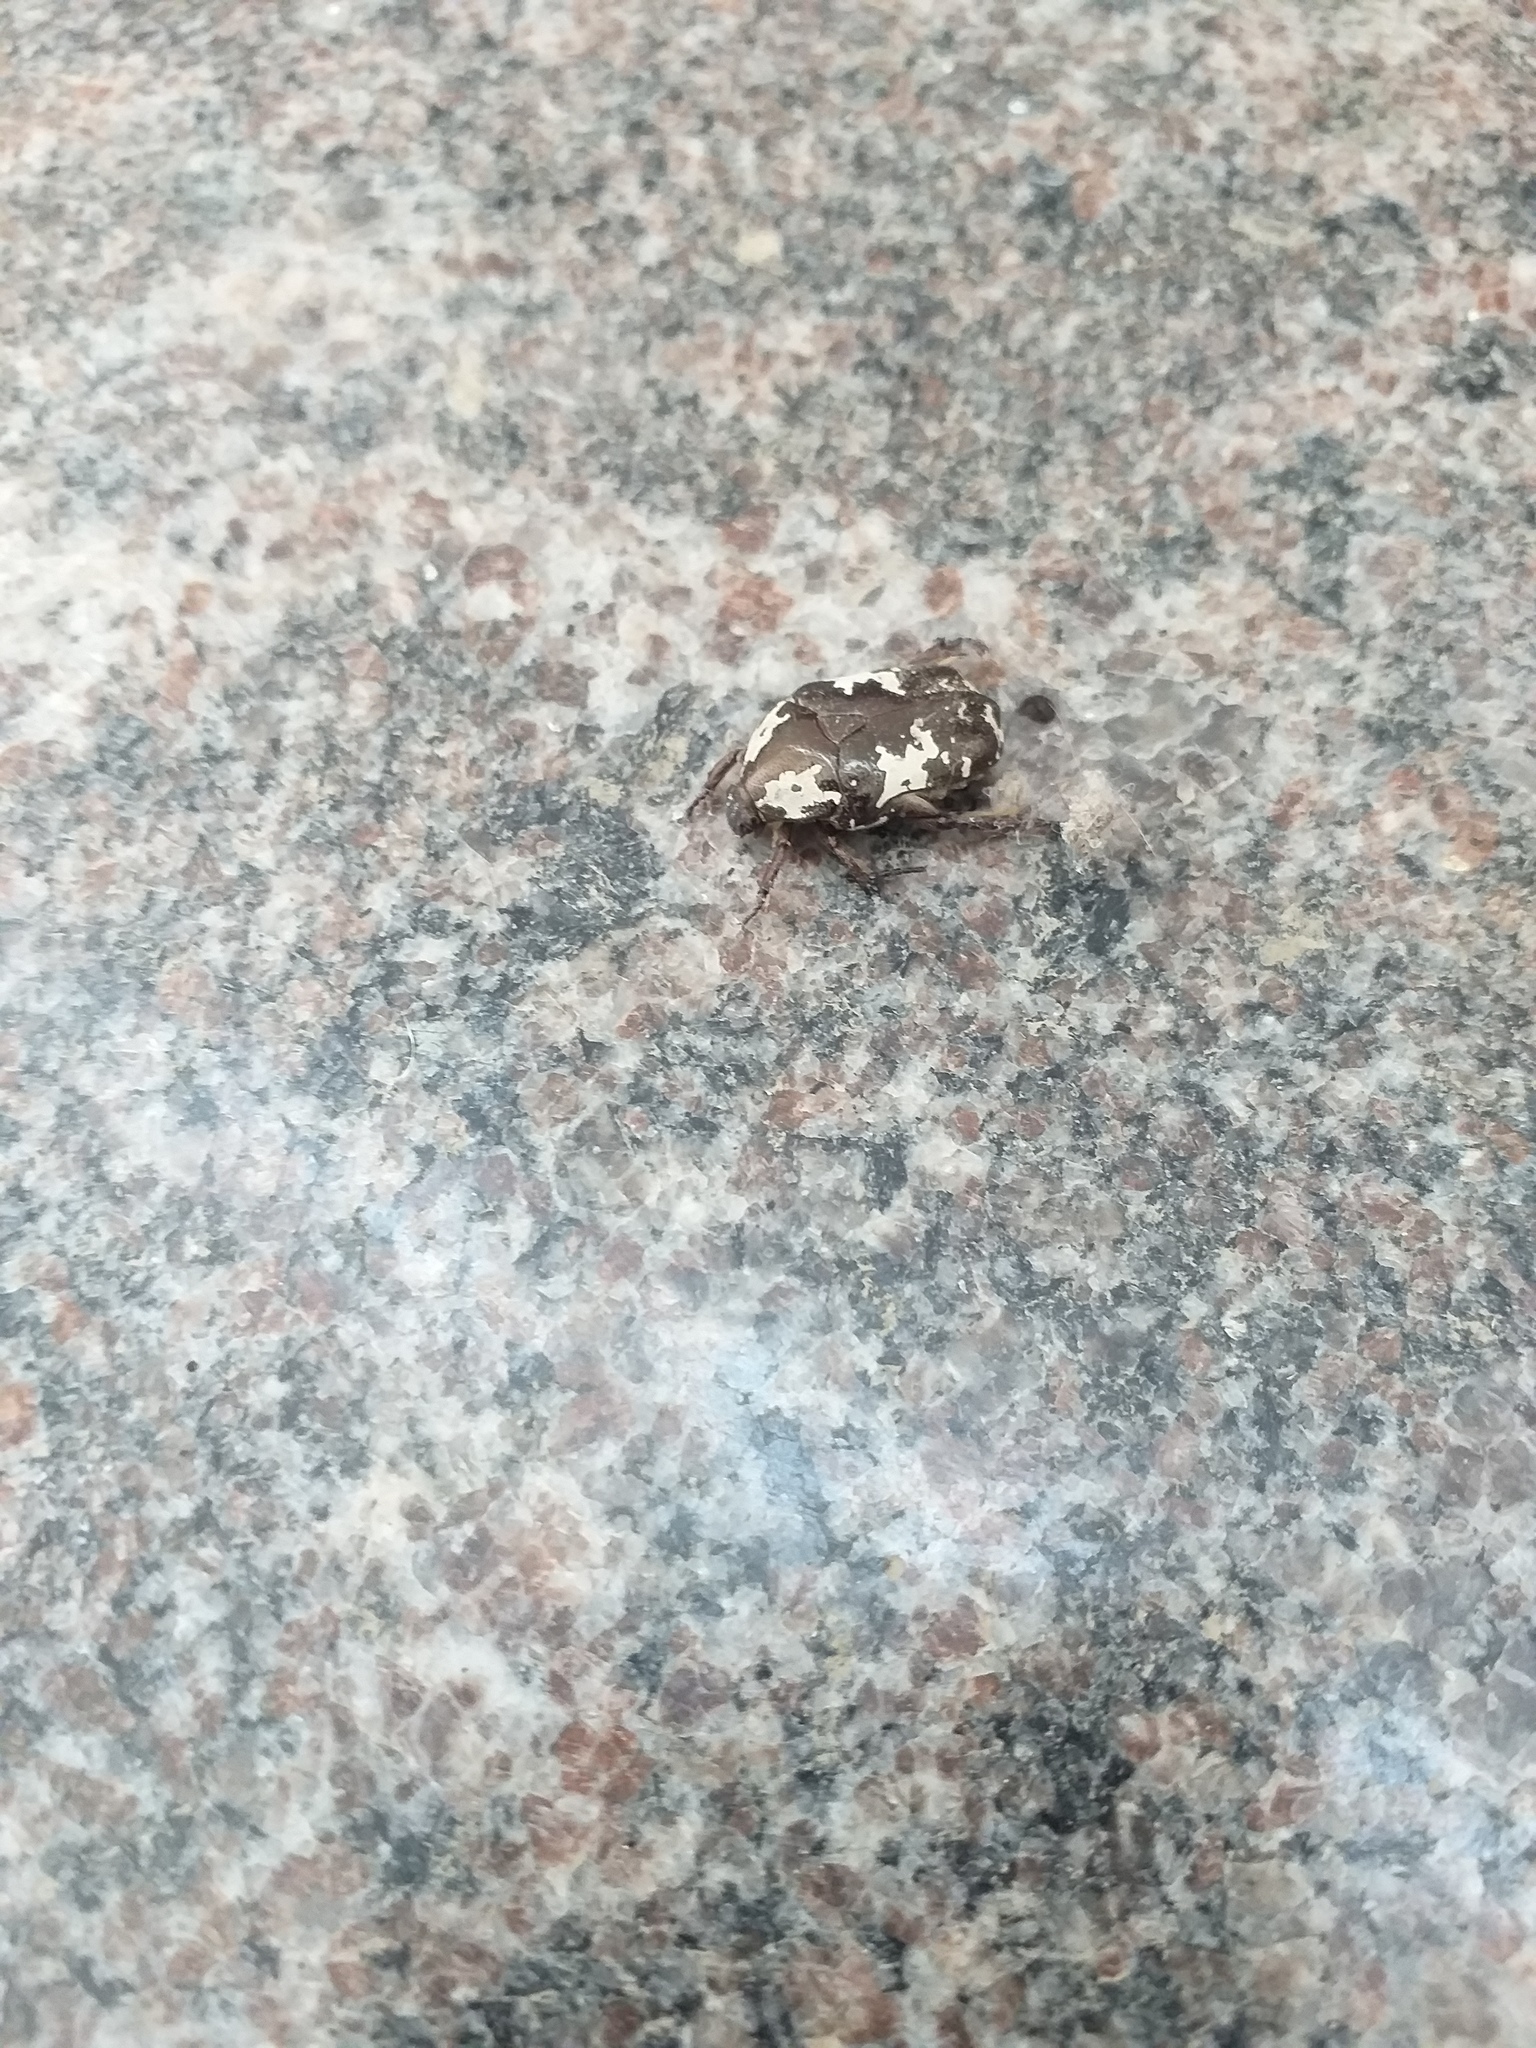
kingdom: Animalia
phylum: Arthropoda
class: Insecta
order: Coleoptera
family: Scarabaeidae
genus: Protaetia
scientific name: Protaetia aurichalcea
